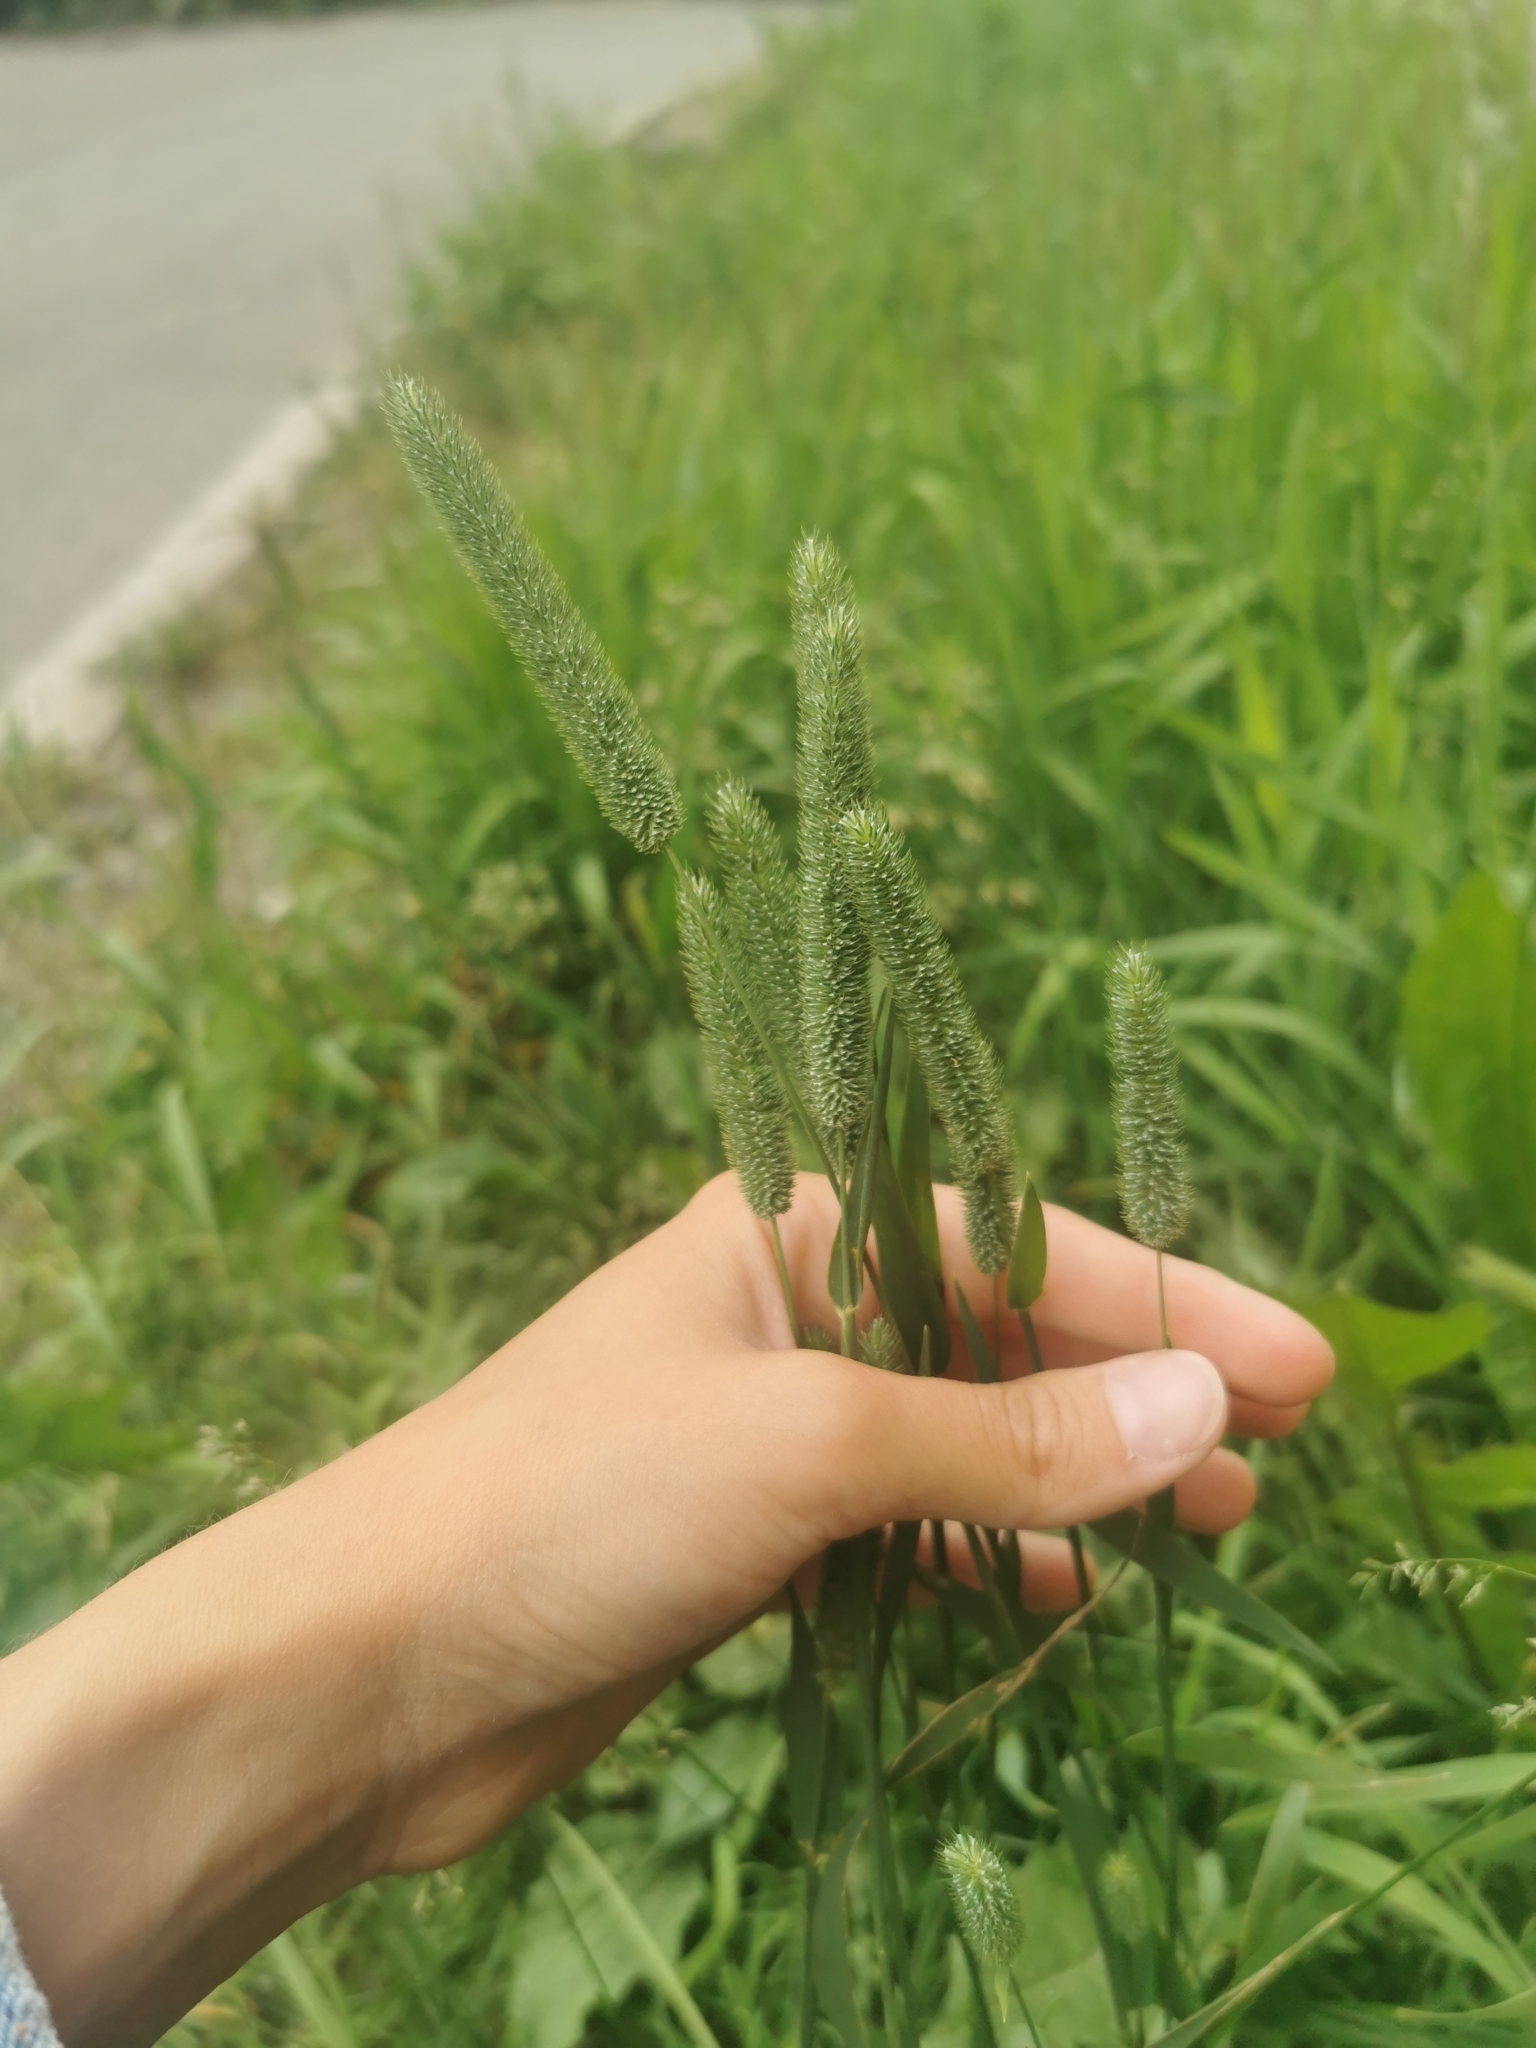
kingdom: Plantae
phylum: Tracheophyta
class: Liliopsida
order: Poales
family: Poaceae
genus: Phleum
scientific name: Phleum pratense
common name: Timothy grass
